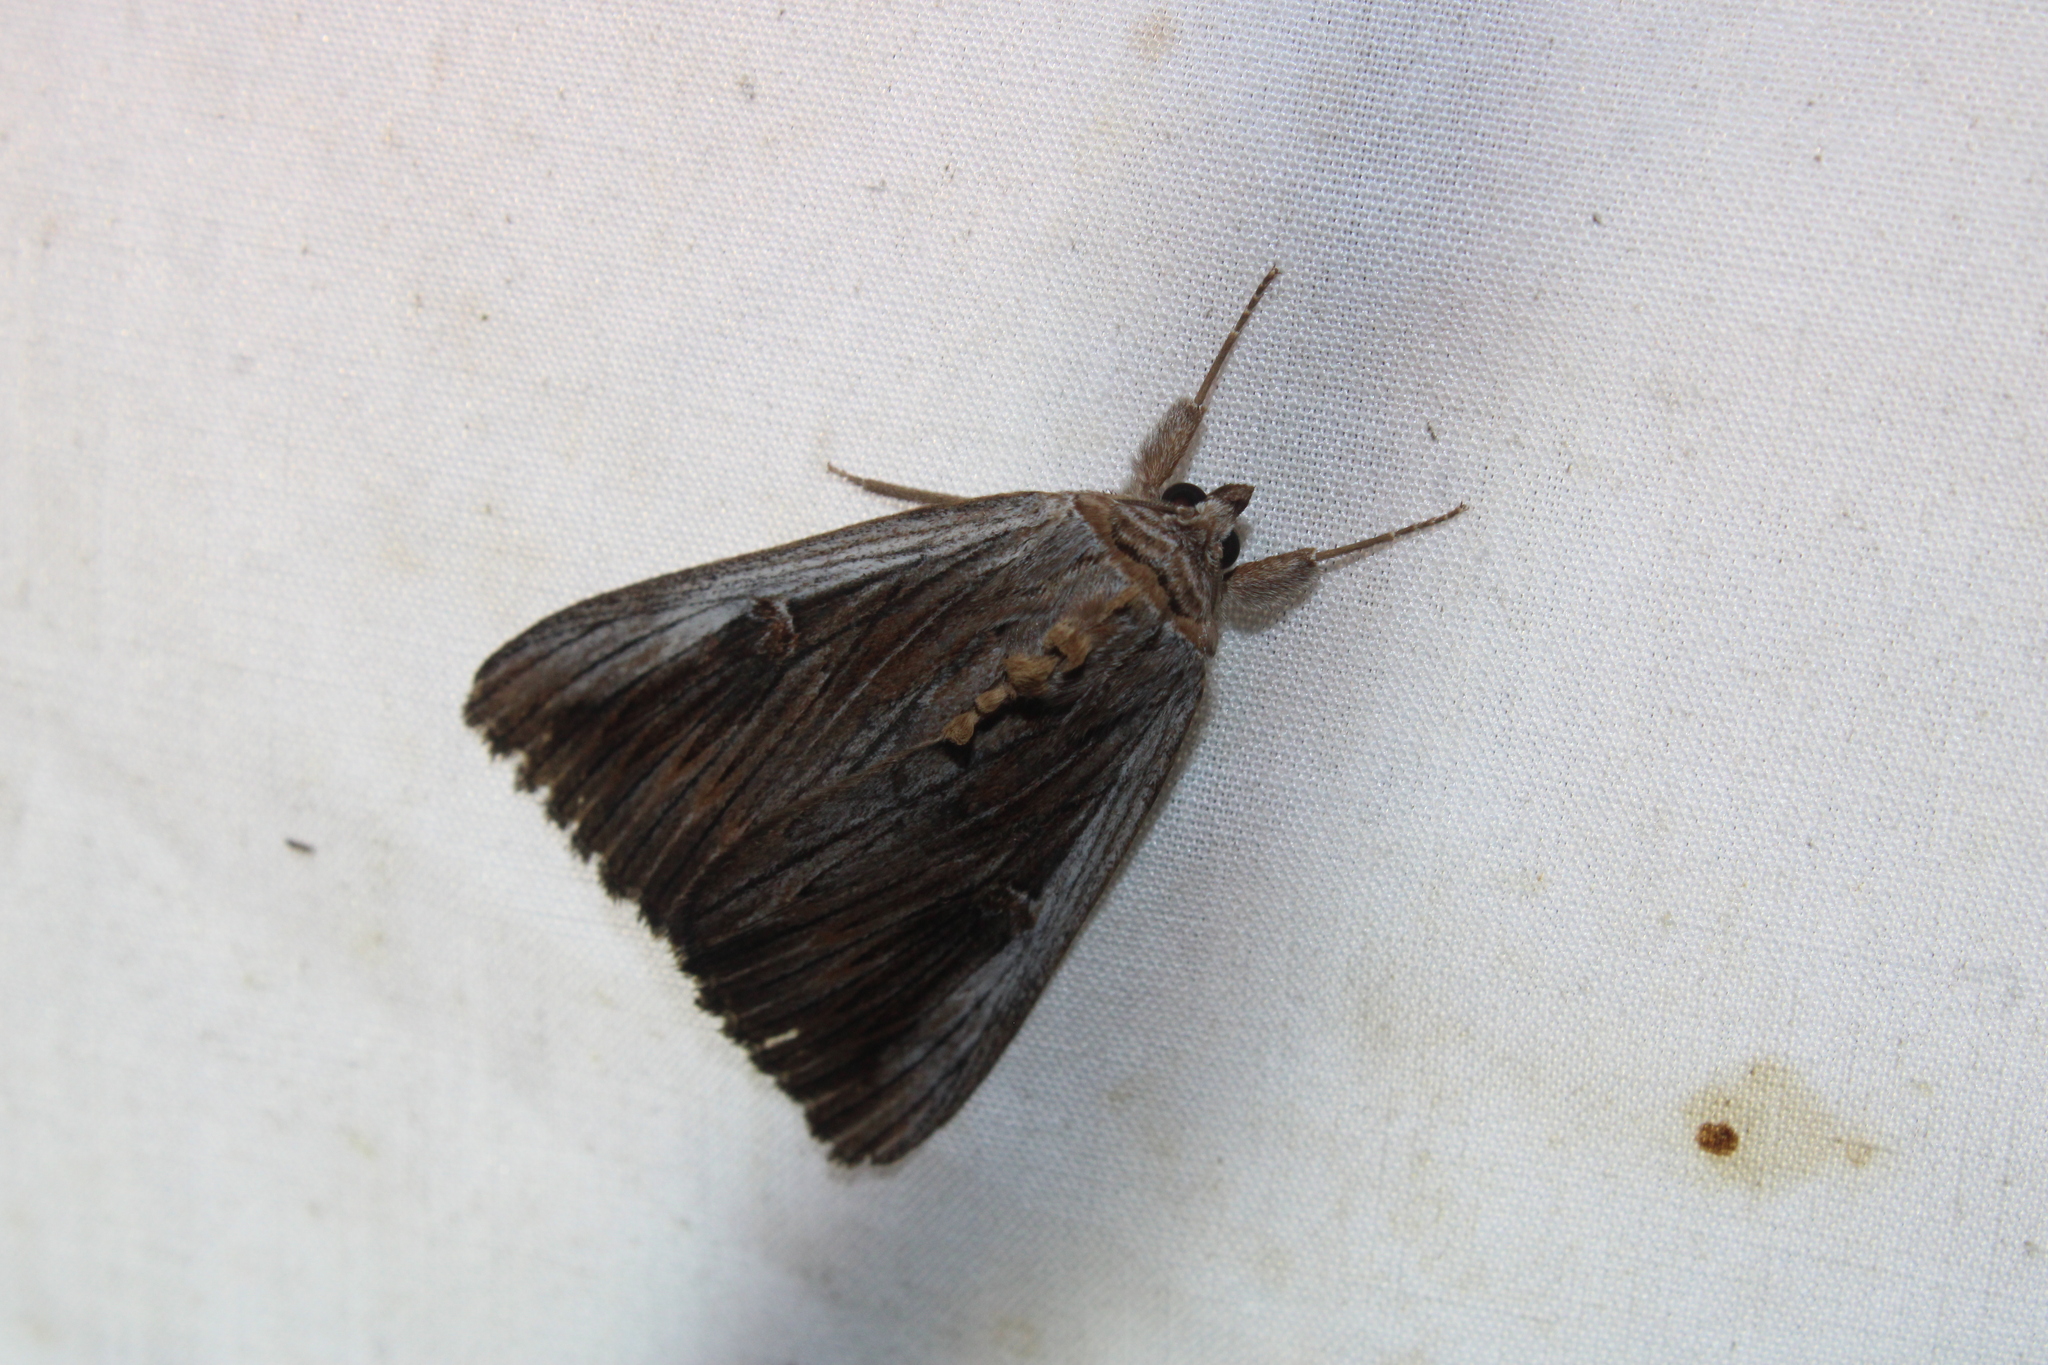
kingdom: Animalia
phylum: Arthropoda
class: Insecta
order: Lepidoptera
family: Erebidae
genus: Catocala
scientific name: Catocala herodias
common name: Pine barrens underwing
